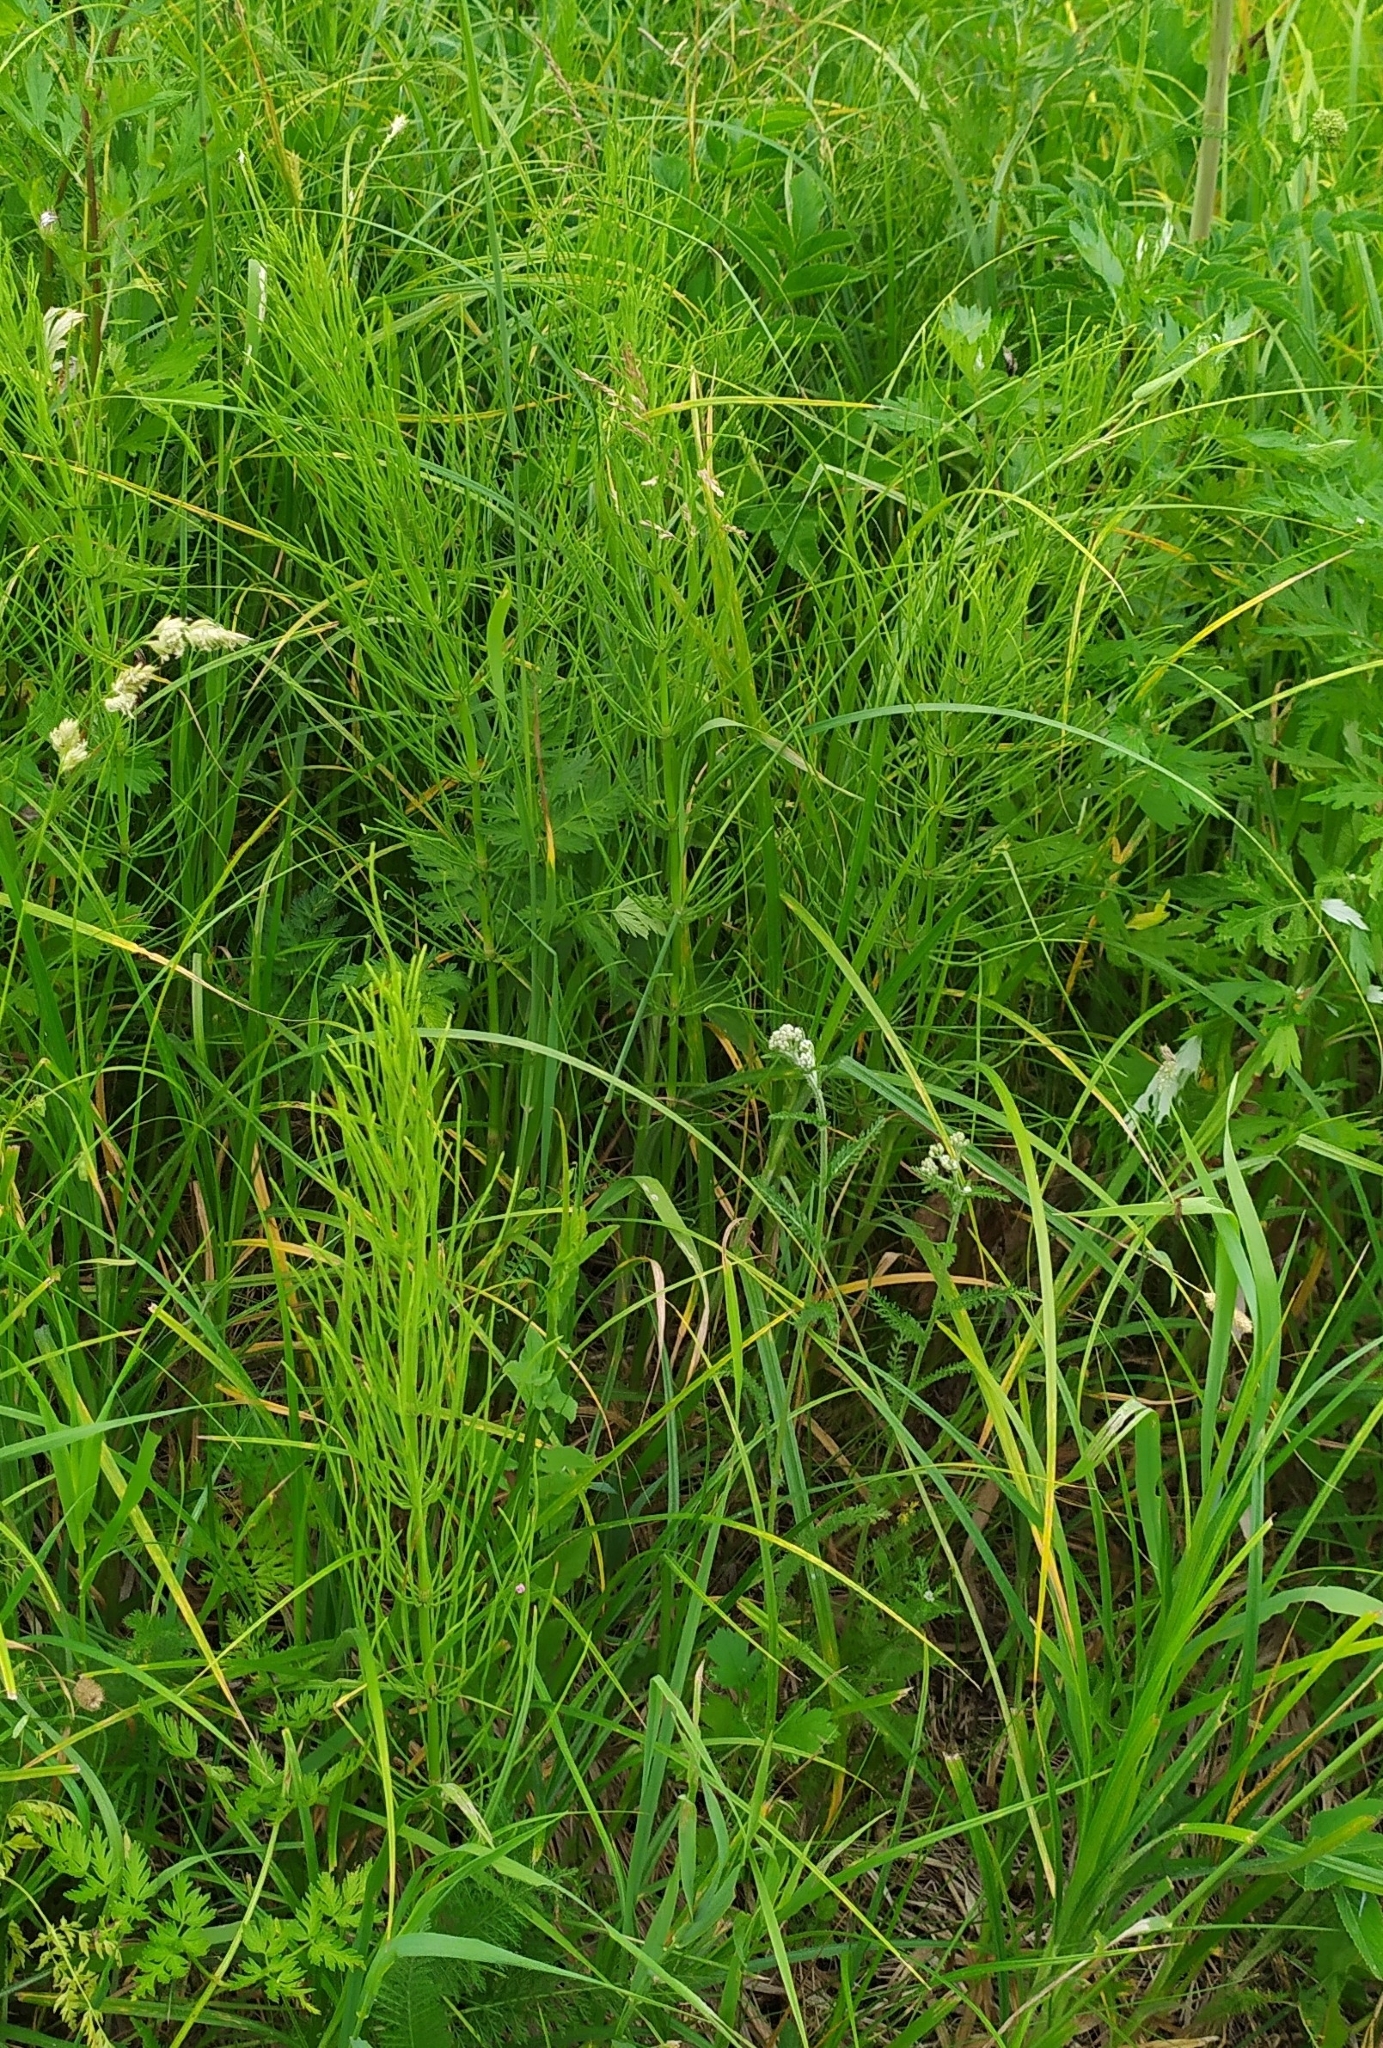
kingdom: Plantae
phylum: Tracheophyta
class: Polypodiopsida
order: Equisetales
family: Equisetaceae
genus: Equisetum
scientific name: Equisetum arvense
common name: Field horsetail
